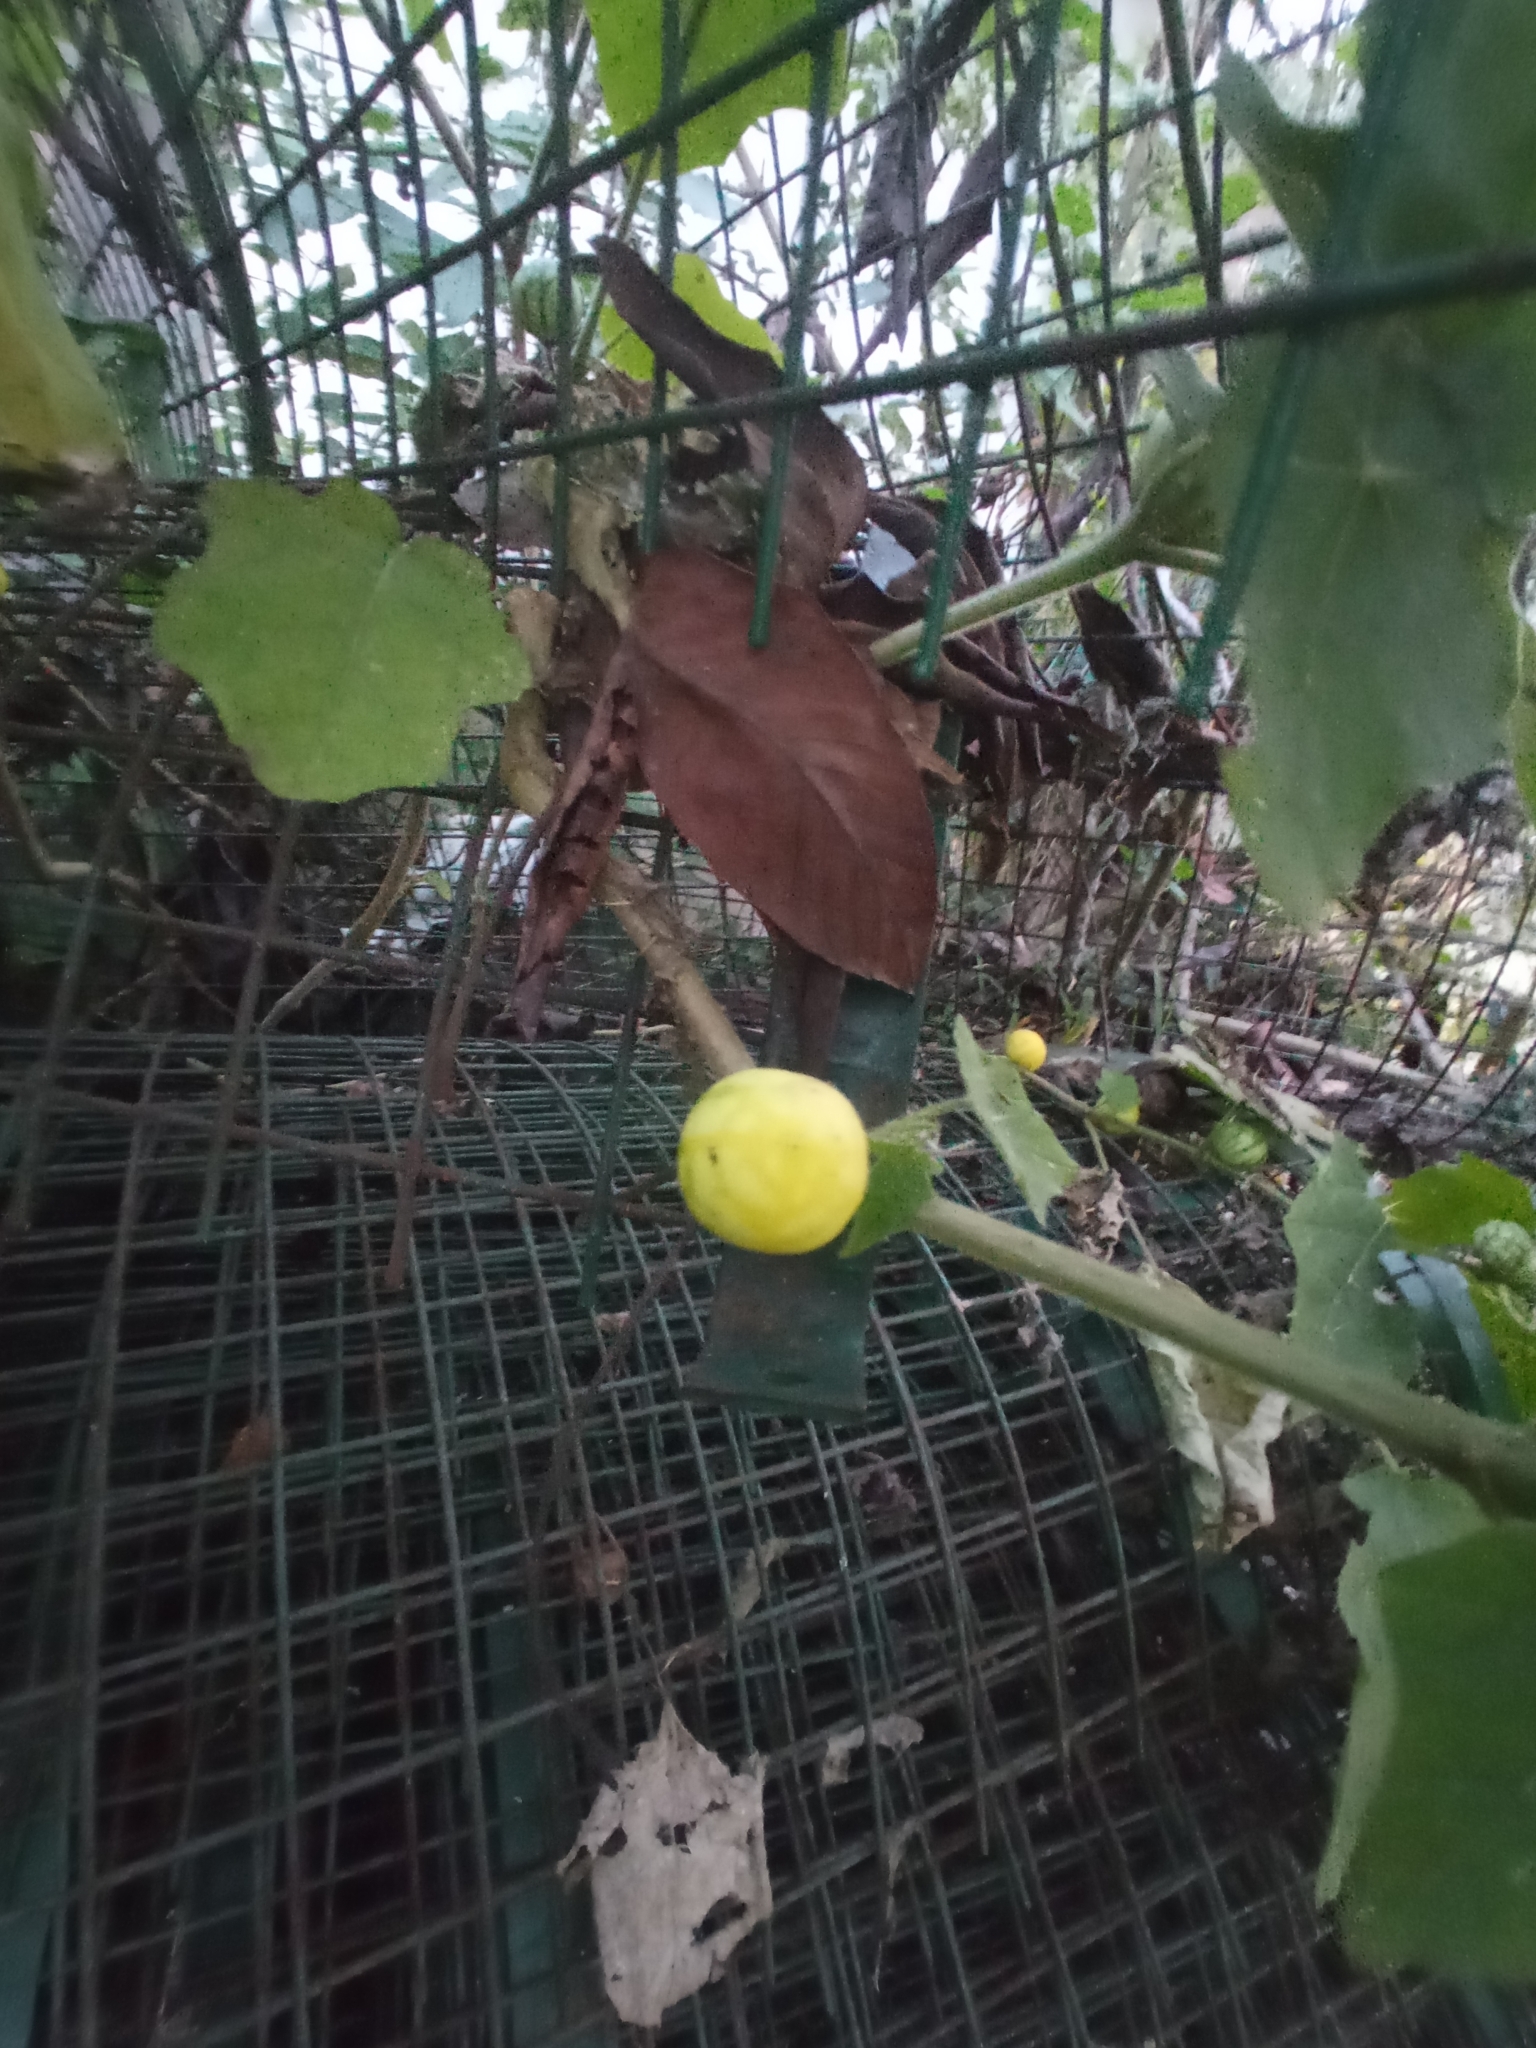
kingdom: Plantae
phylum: Tracheophyta
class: Magnoliopsida
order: Solanales
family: Solanaceae
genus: Solanum
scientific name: Solanum viarum
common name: Tropical soda apple
